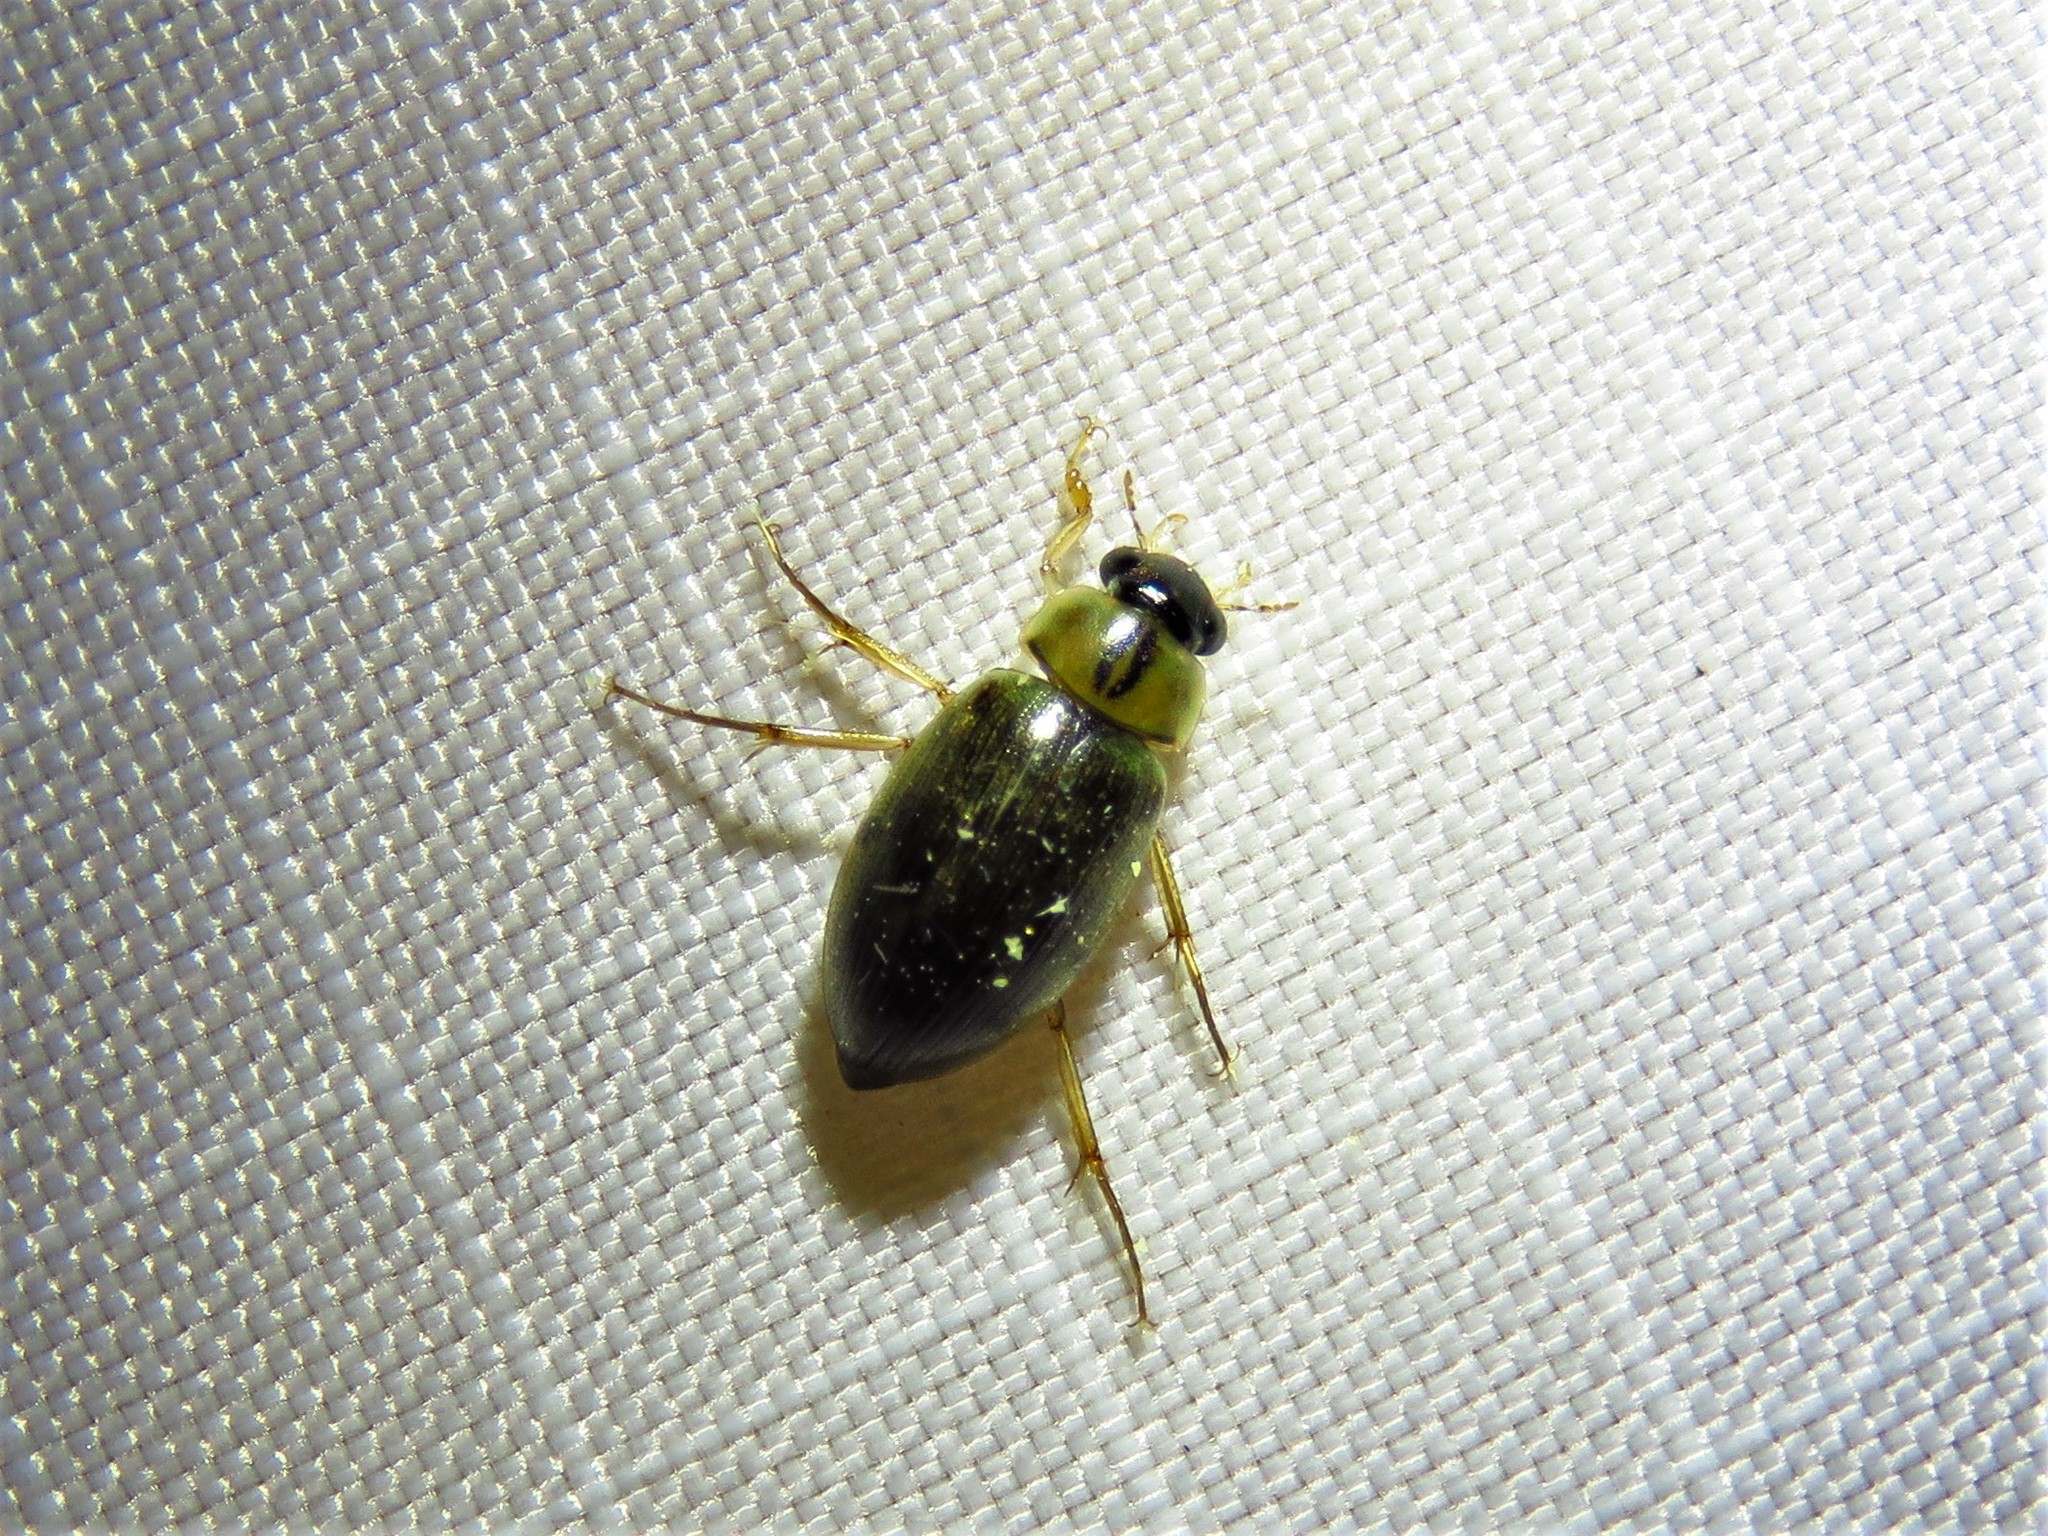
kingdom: Animalia
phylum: Arthropoda
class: Insecta
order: Coleoptera
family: Hydrophilidae
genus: Berosus
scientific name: Berosus
